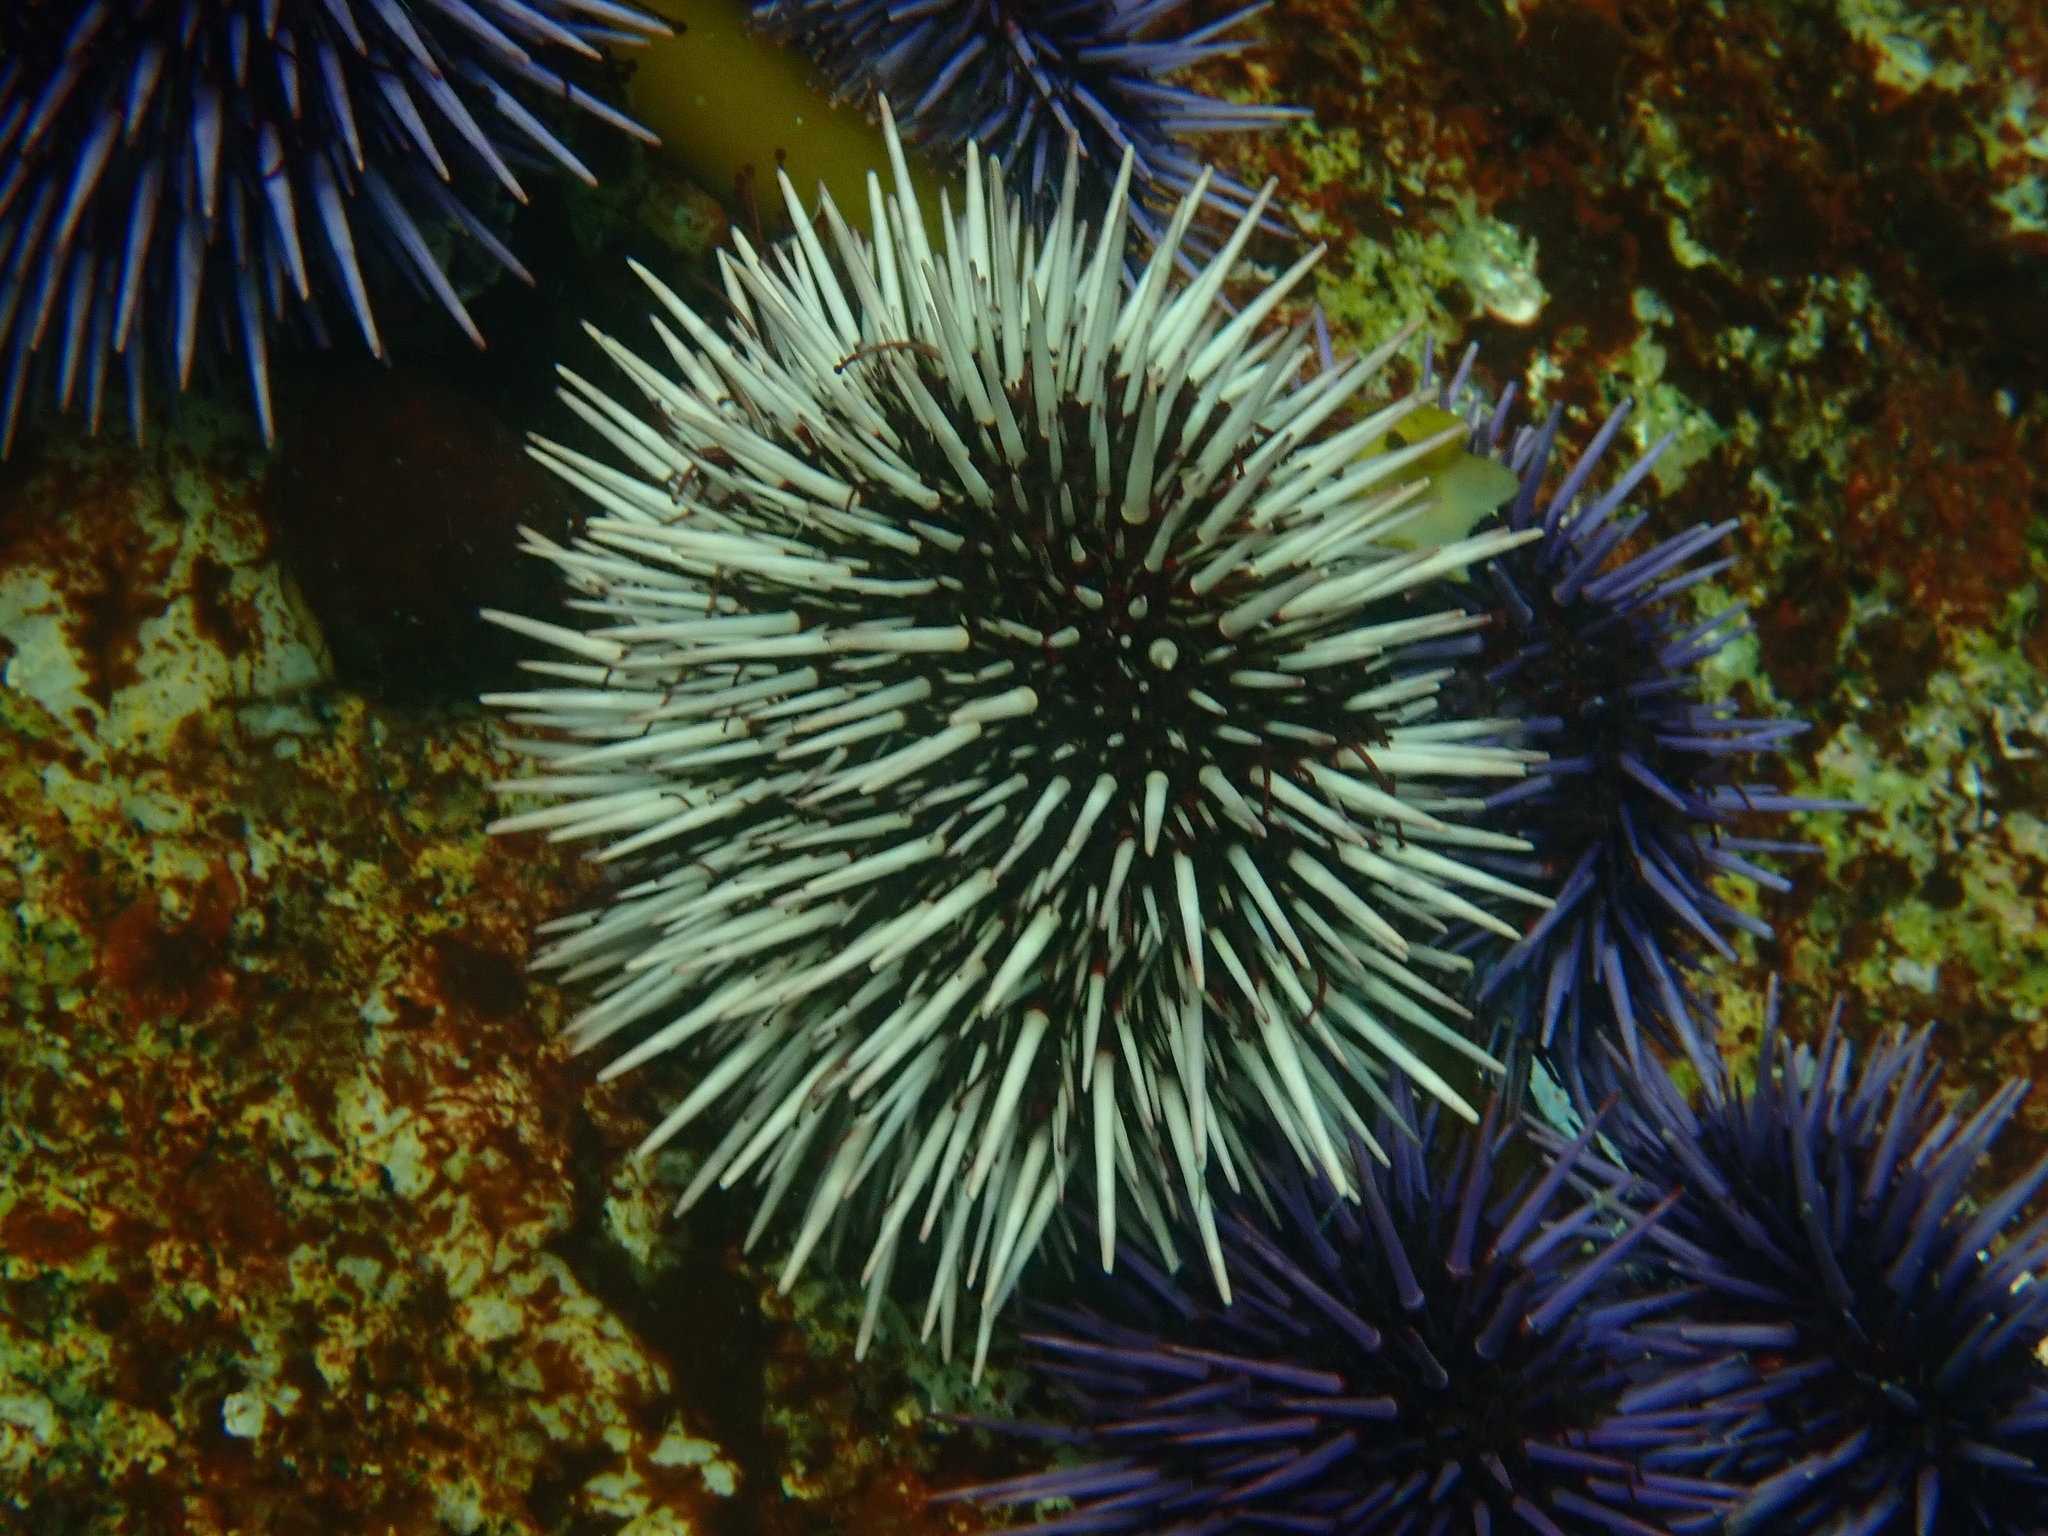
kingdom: Animalia
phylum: Echinodermata
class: Echinoidea
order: Camarodonta
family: Strongylocentrotidae
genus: Mesocentrotus
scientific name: Mesocentrotus franciscanus
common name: Red sea urchin
